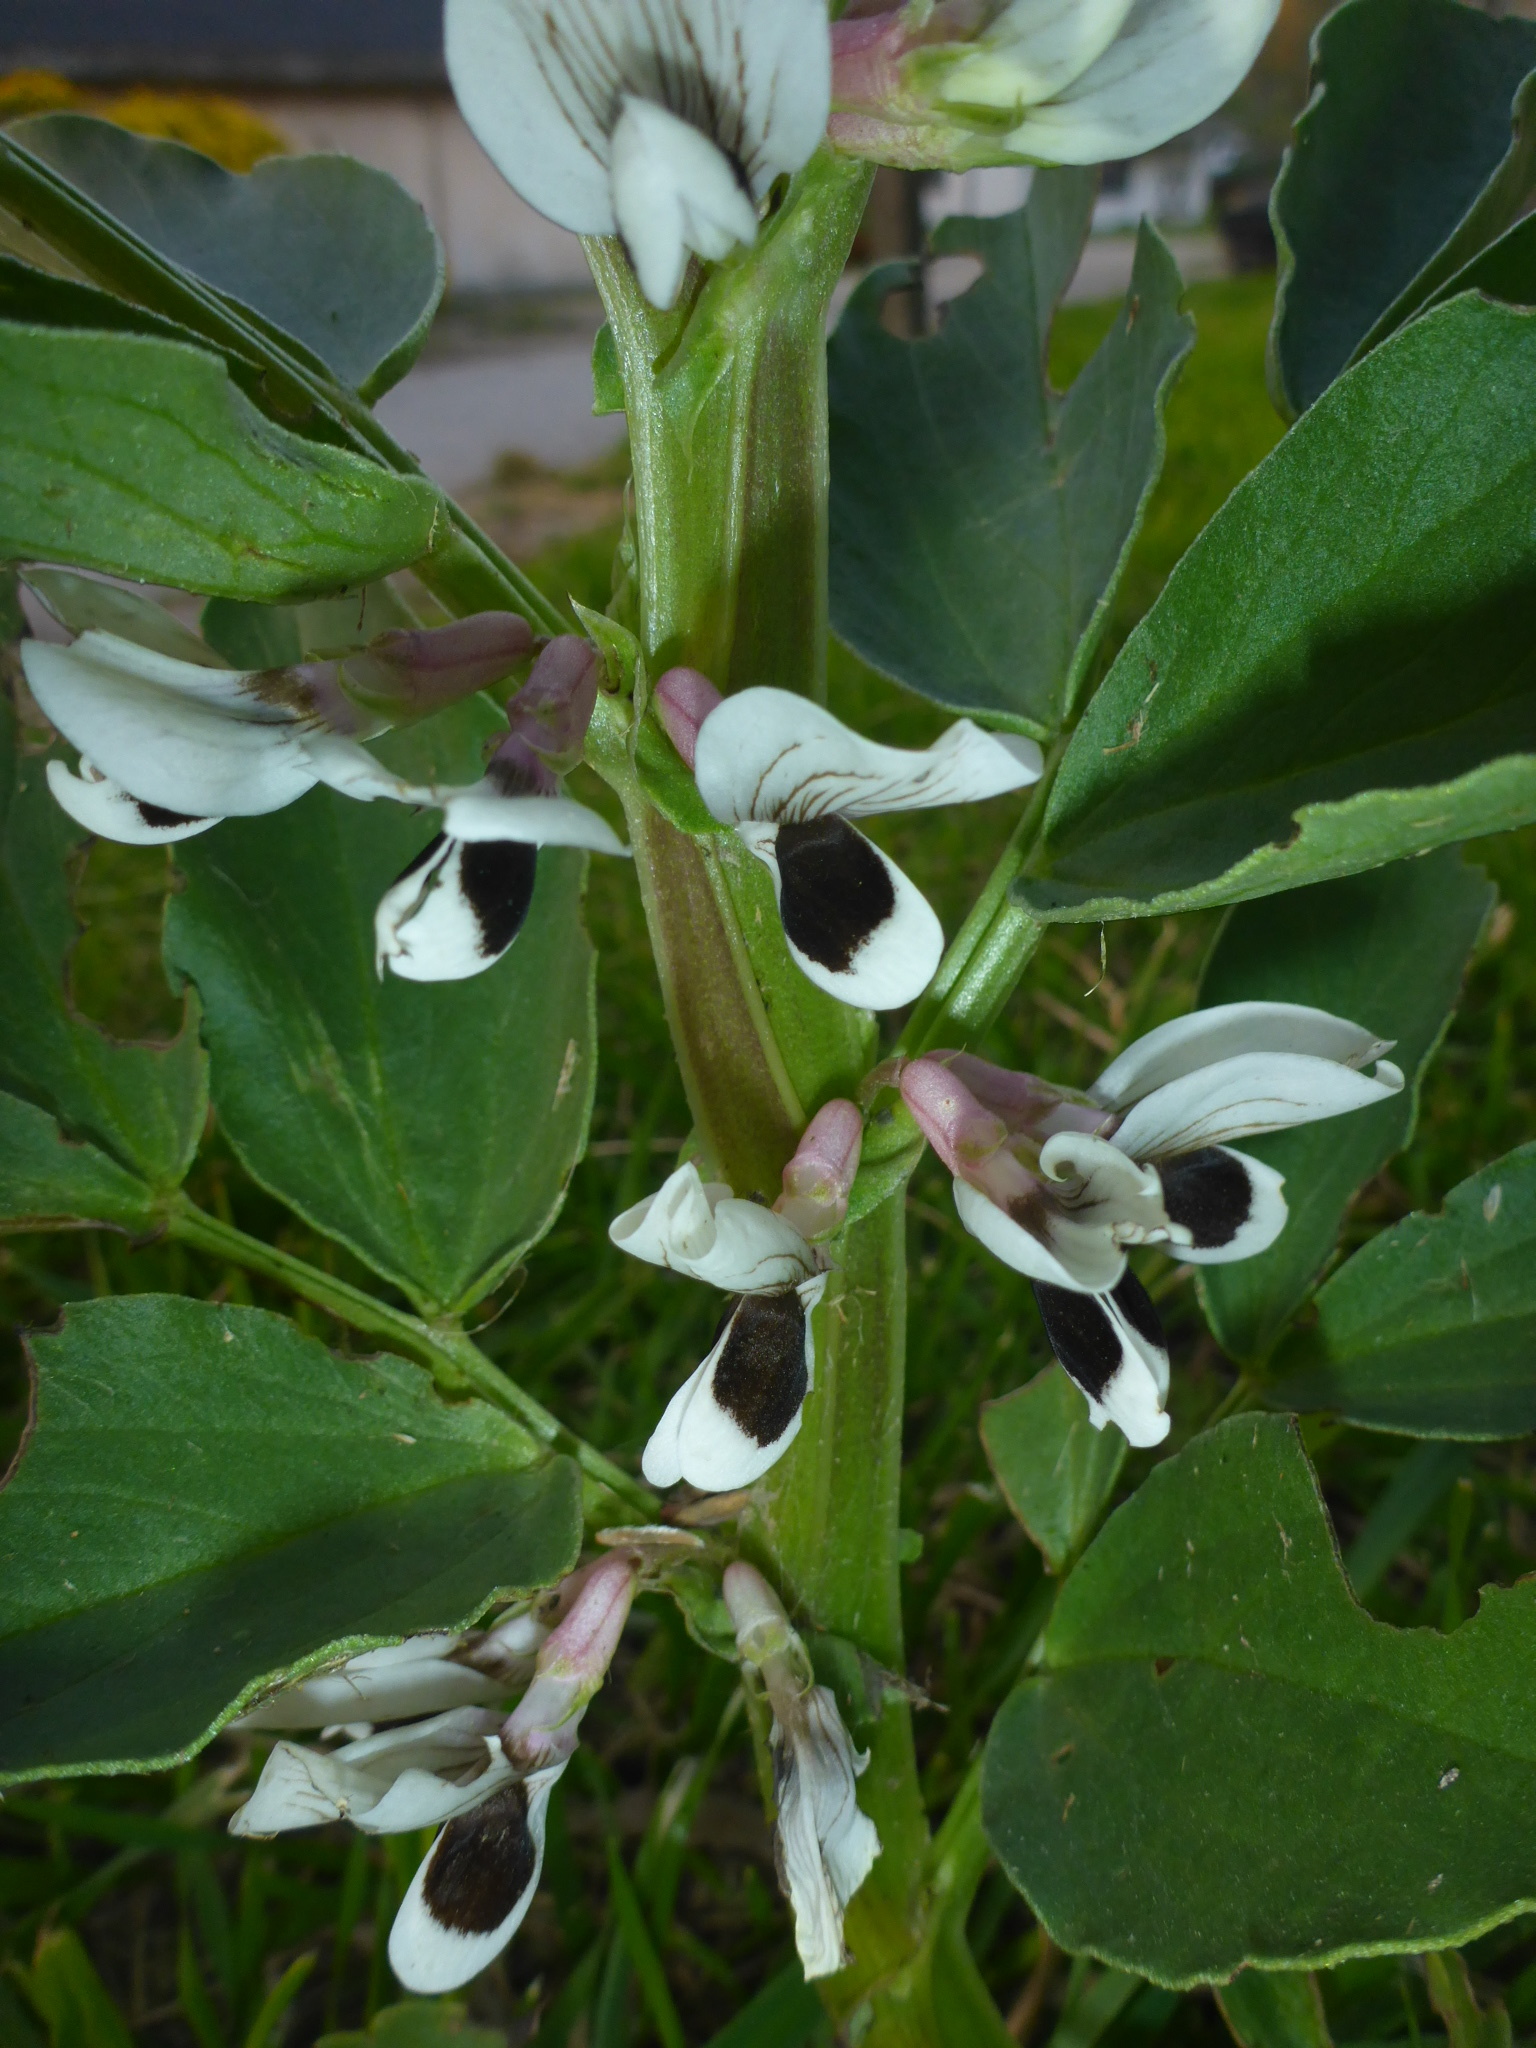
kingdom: Plantae
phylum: Tracheophyta
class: Magnoliopsida
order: Fabales
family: Fabaceae
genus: Vicia
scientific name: Vicia faba
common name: Broad bean
